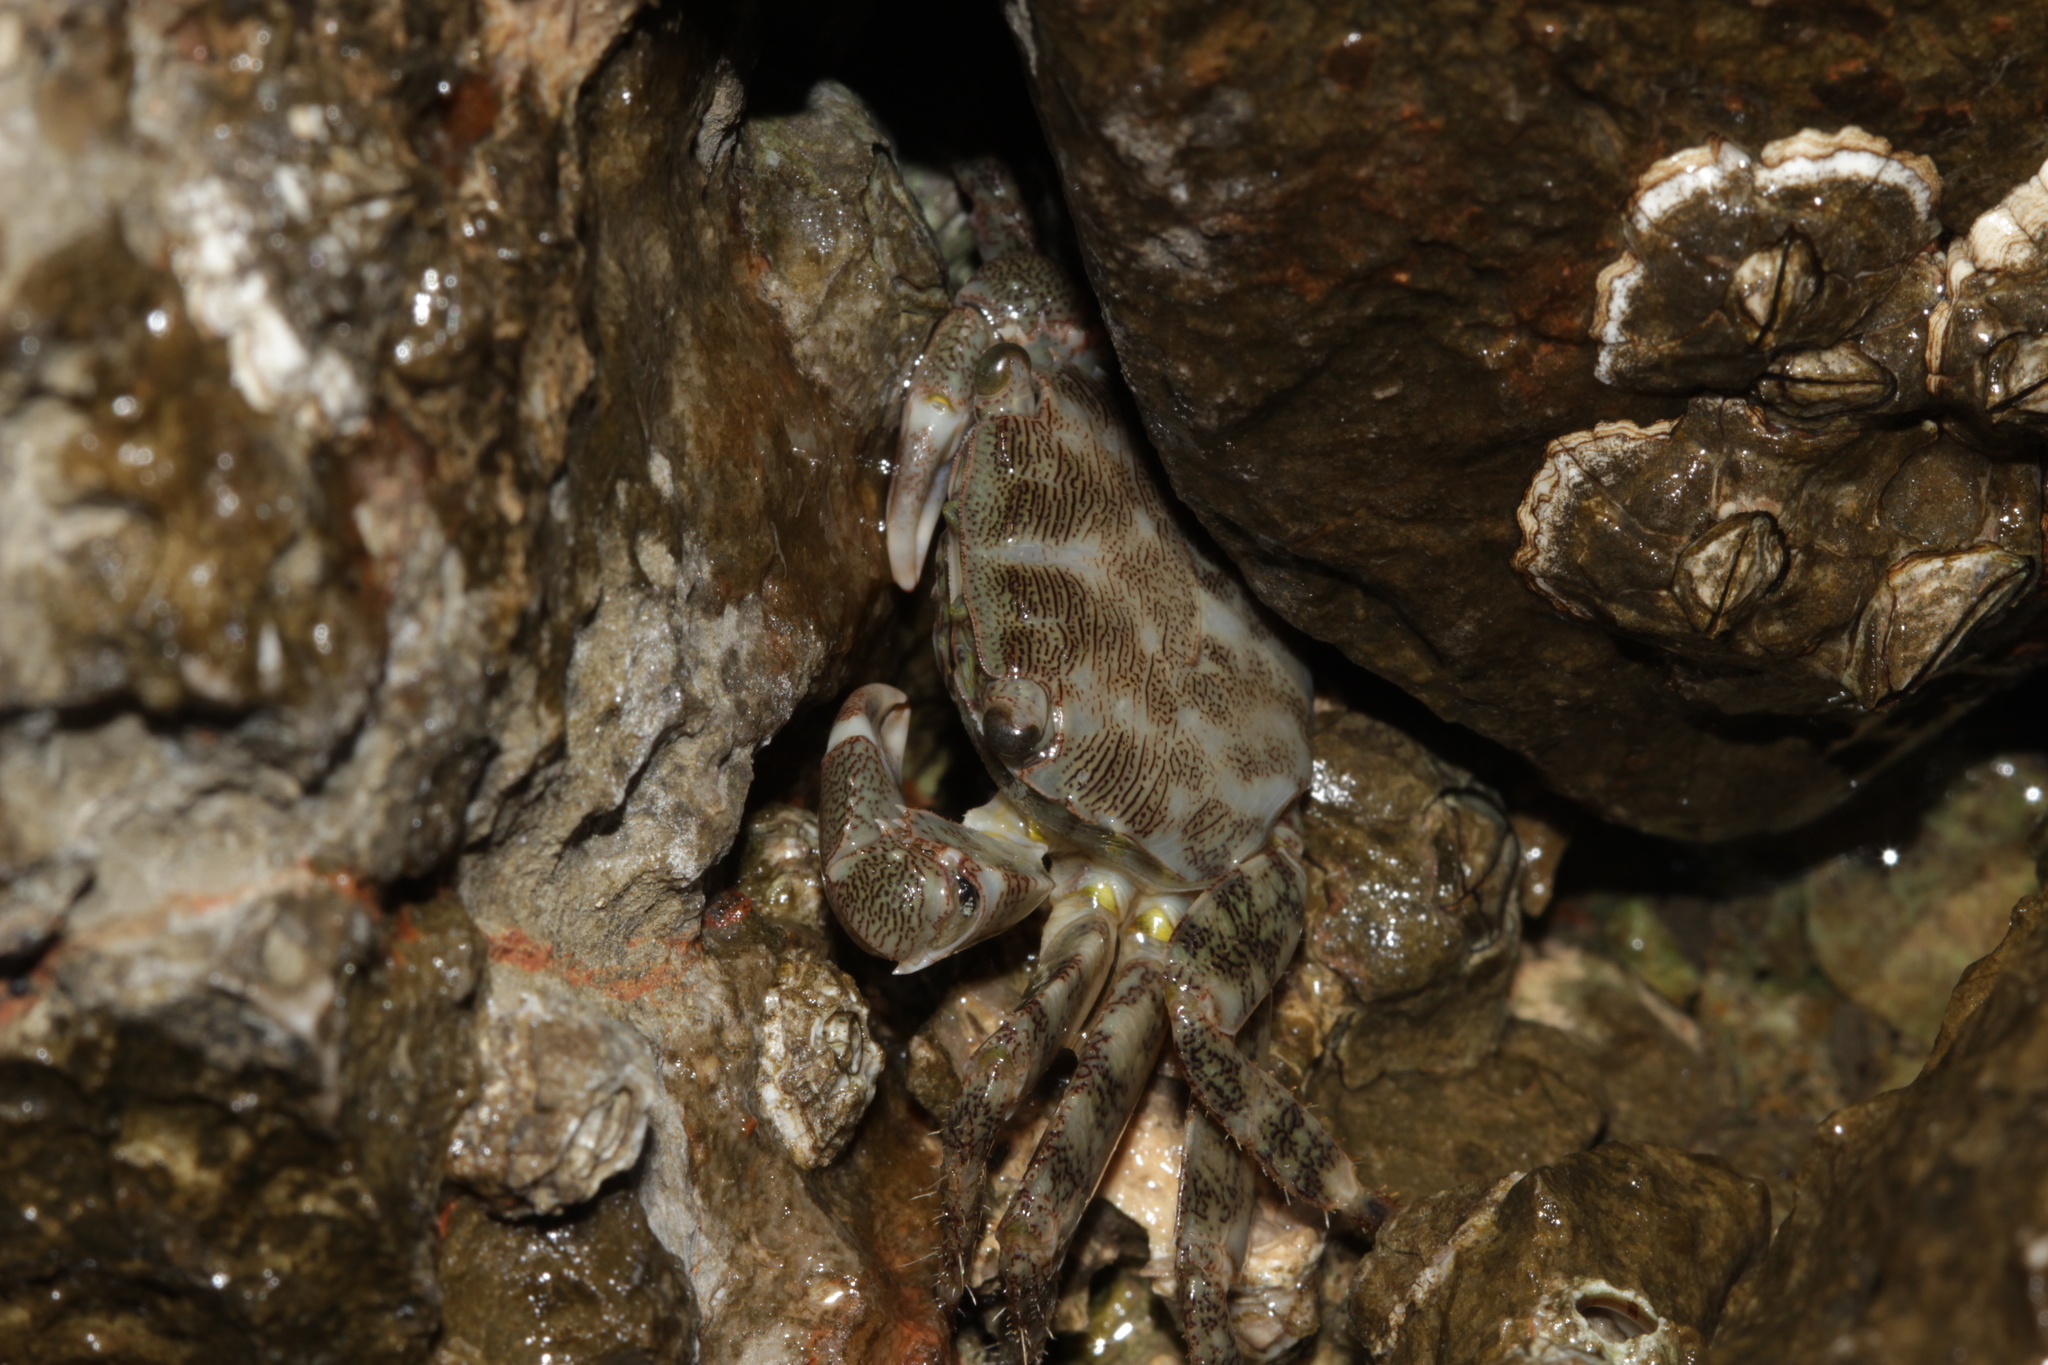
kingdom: Animalia
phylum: Arthropoda
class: Malacostraca
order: Decapoda
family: Grapsidae
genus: Pachygrapsus
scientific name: Pachygrapsus marmoratus
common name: Marbled rock crab
